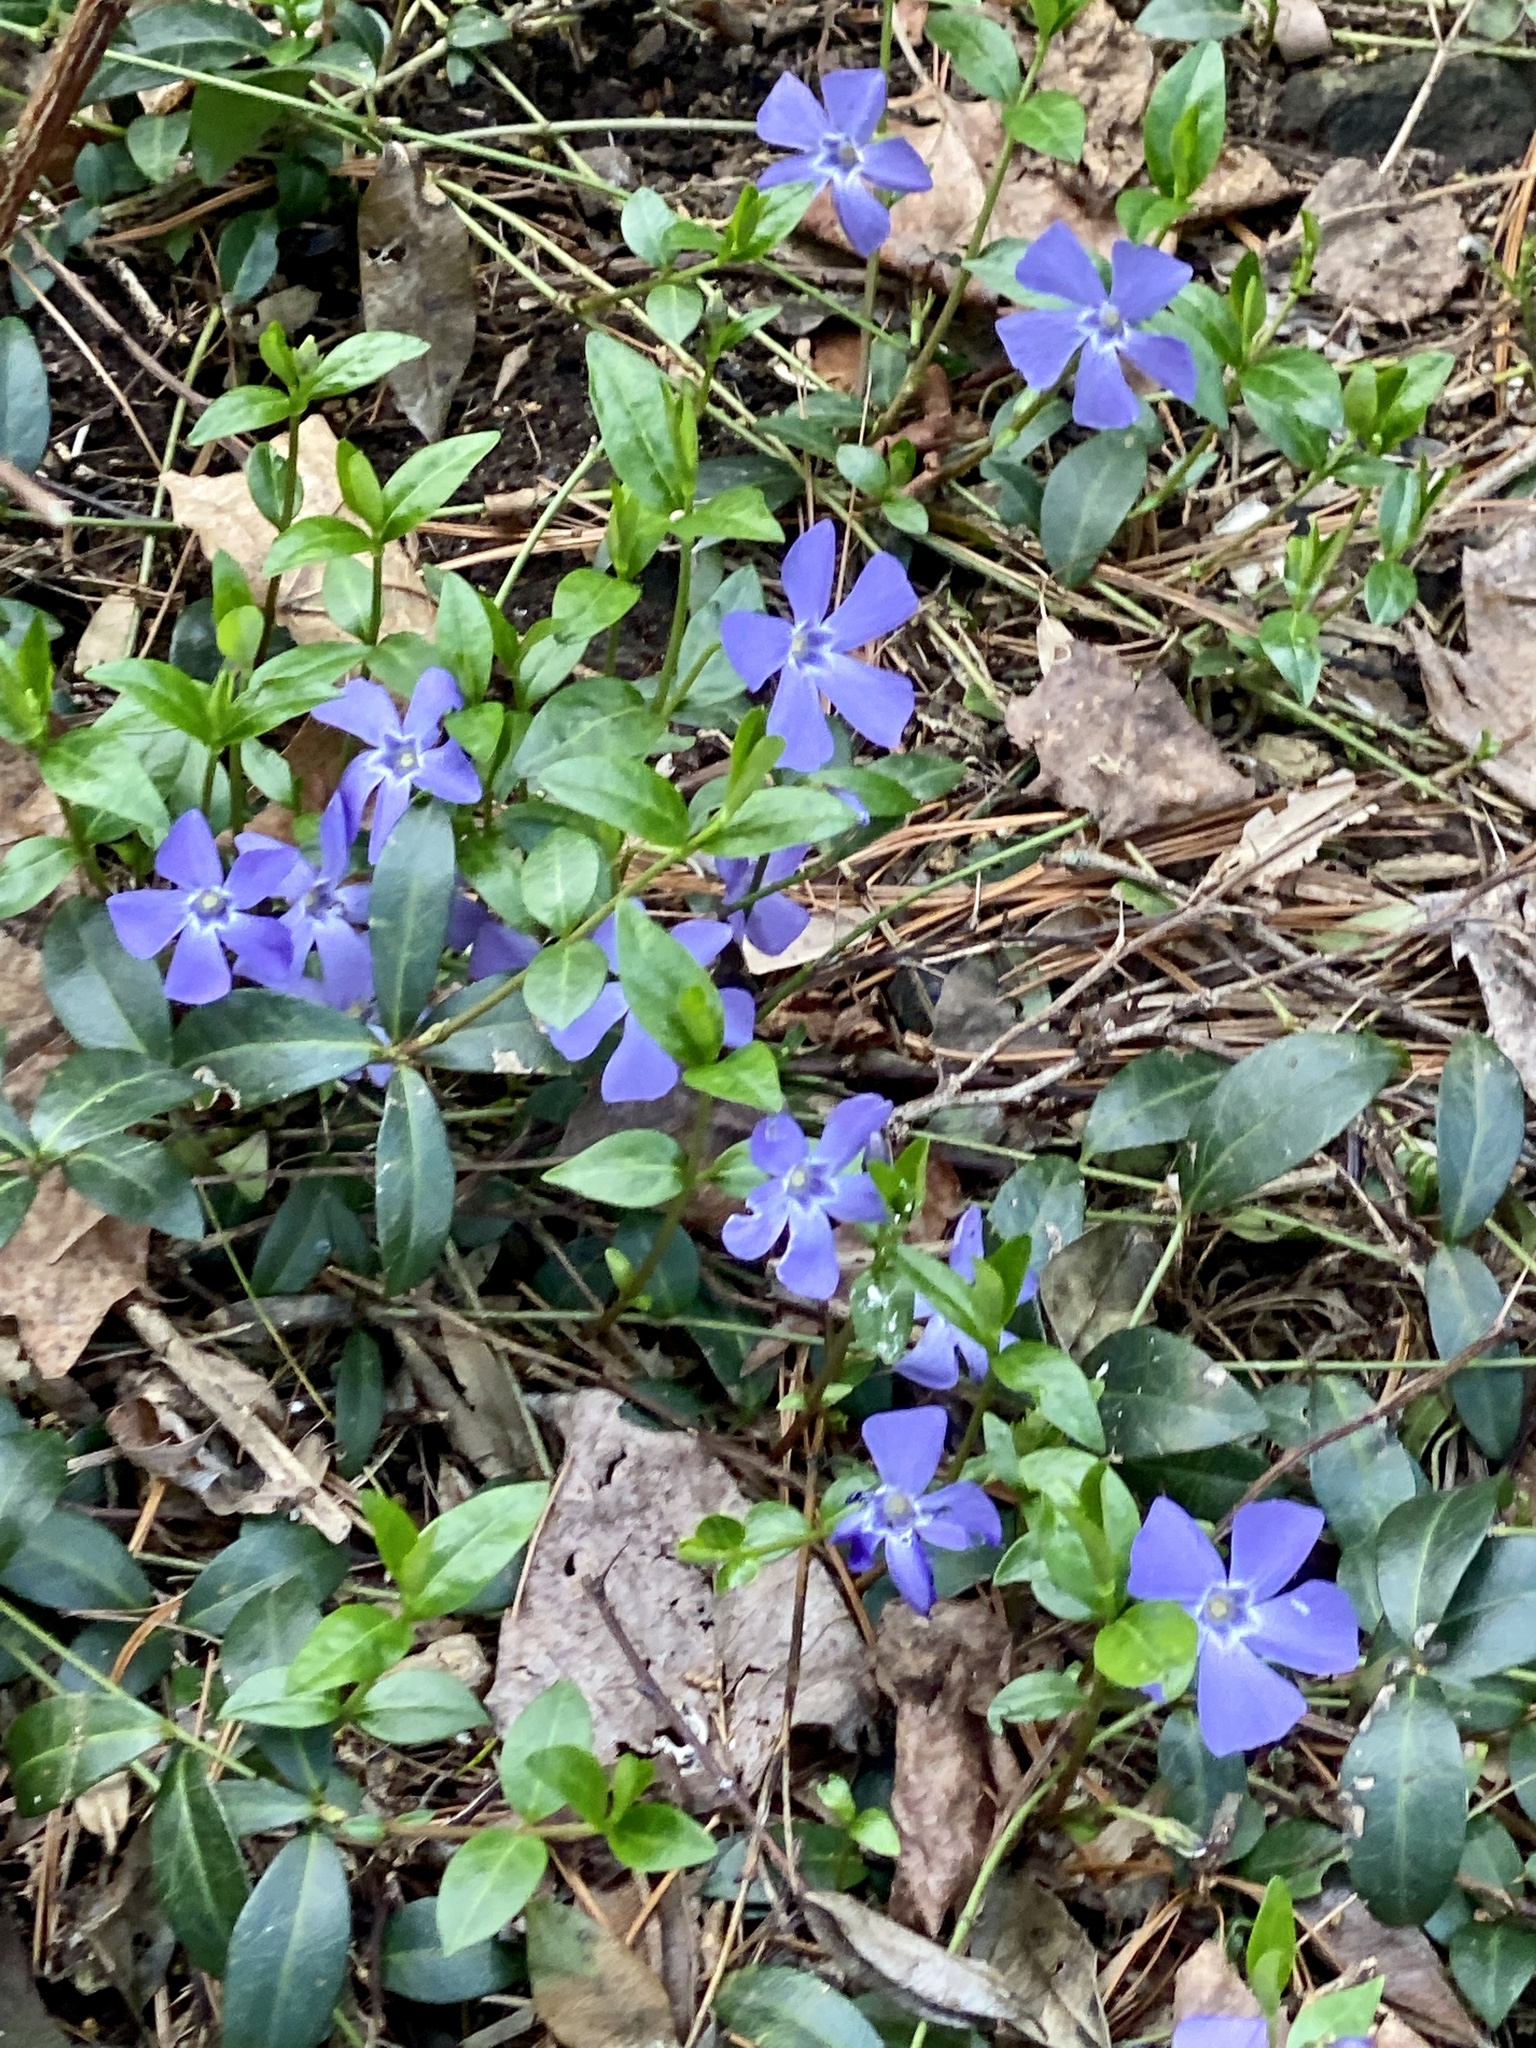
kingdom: Plantae
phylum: Tracheophyta
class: Magnoliopsida
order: Gentianales
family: Apocynaceae
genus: Vinca
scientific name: Vinca minor
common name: Lesser periwinkle
